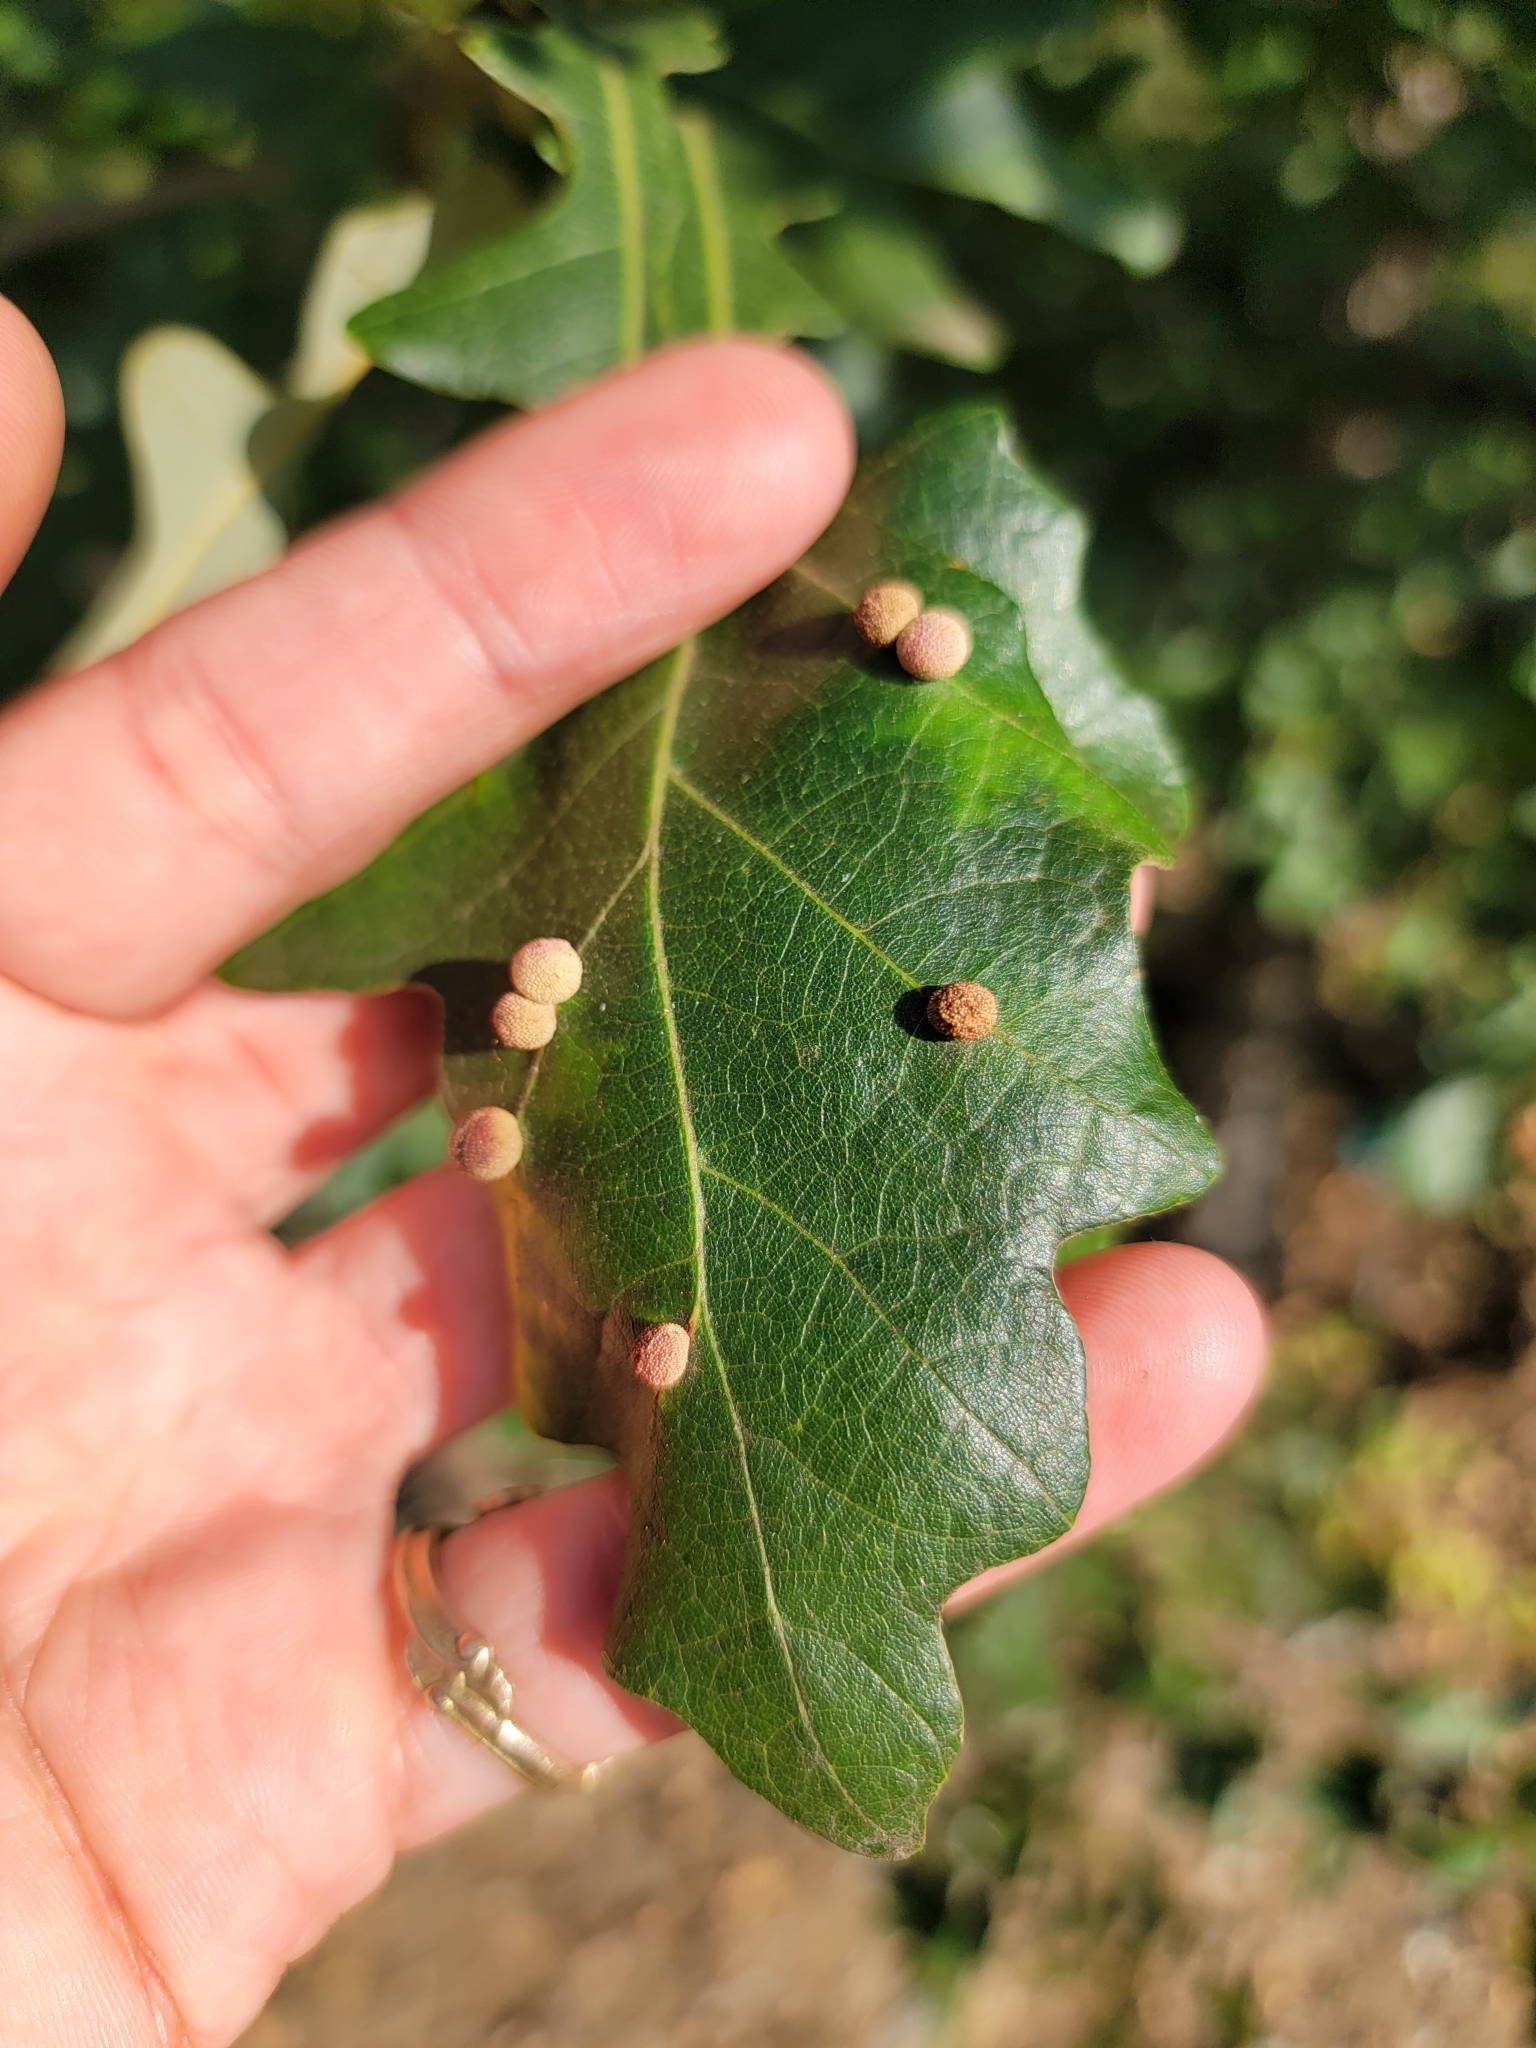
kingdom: Animalia
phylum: Arthropoda
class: Insecta
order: Hymenoptera
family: Cynipidae
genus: Acraspis
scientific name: Acraspis quercushirta
